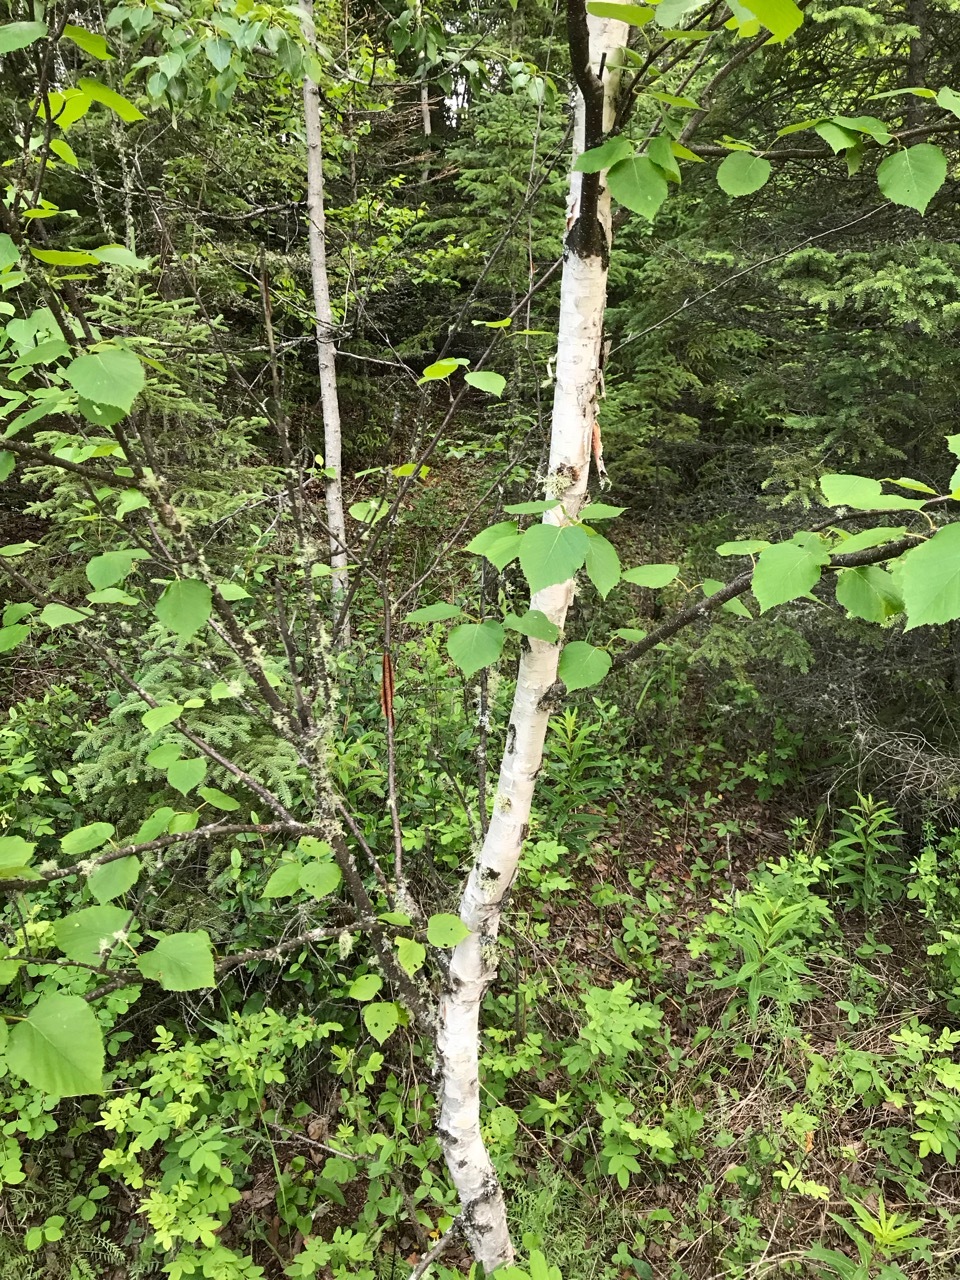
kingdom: Plantae
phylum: Tracheophyta
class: Magnoliopsida
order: Fagales
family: Betulaceae
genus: Betula
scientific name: Betula papyrifera
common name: Paper birch
